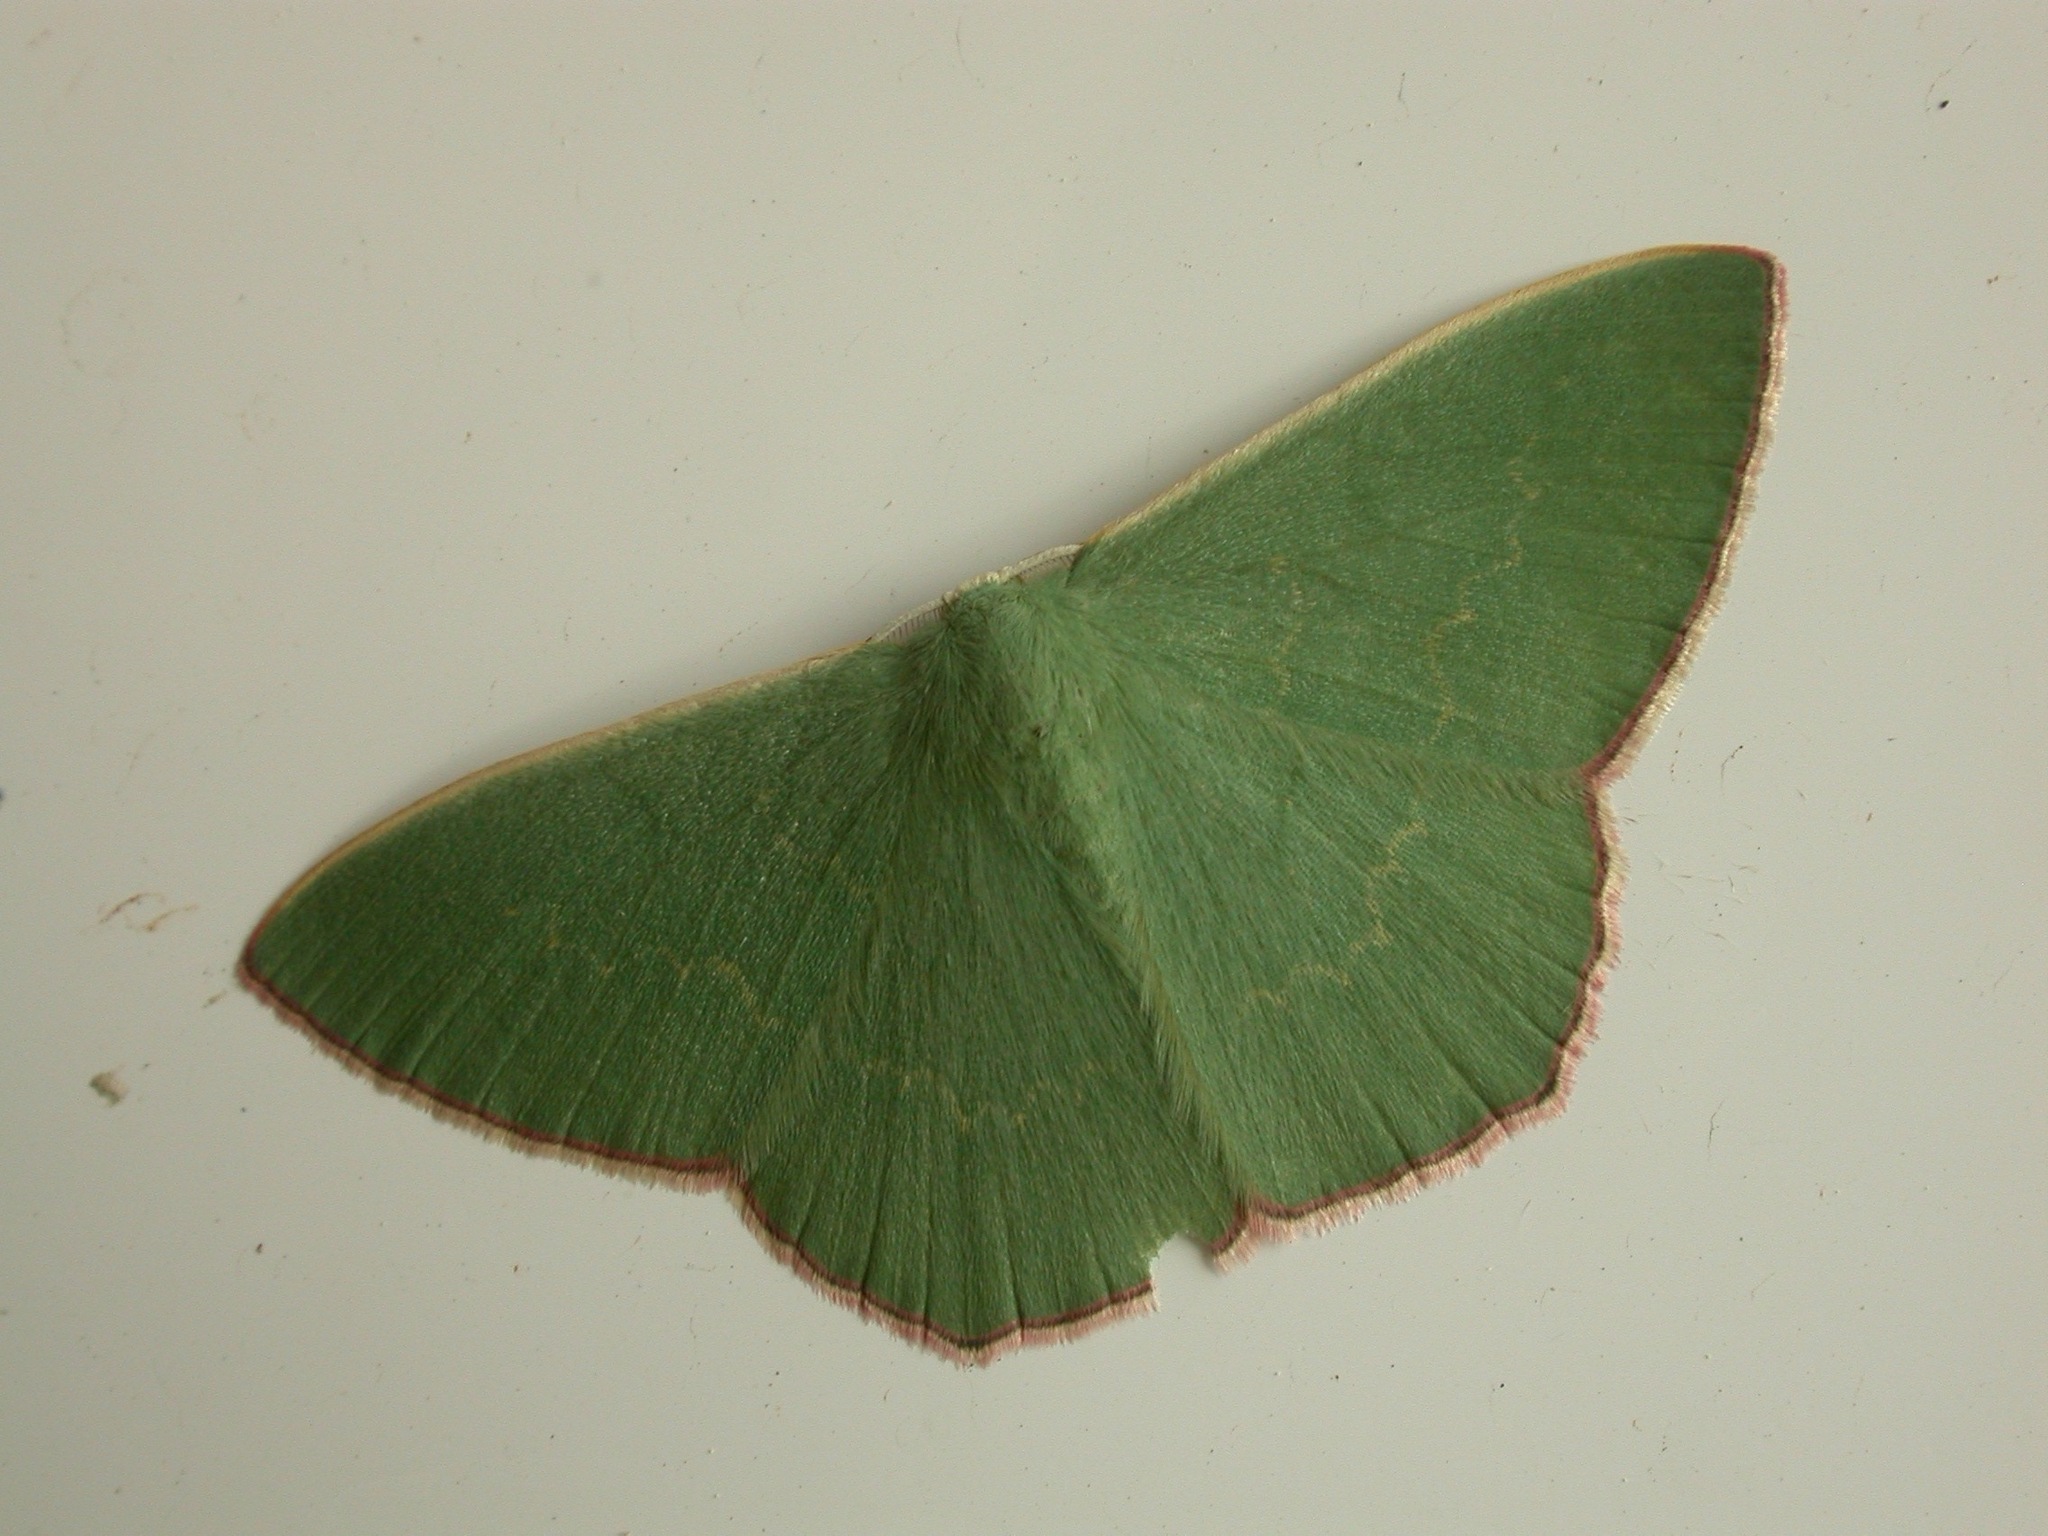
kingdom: Animalia
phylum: Arthropoda
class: Insecta
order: Lepidoptera
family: Geometridae
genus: Prasinocyma
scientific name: Prasinocyma semicrocea
